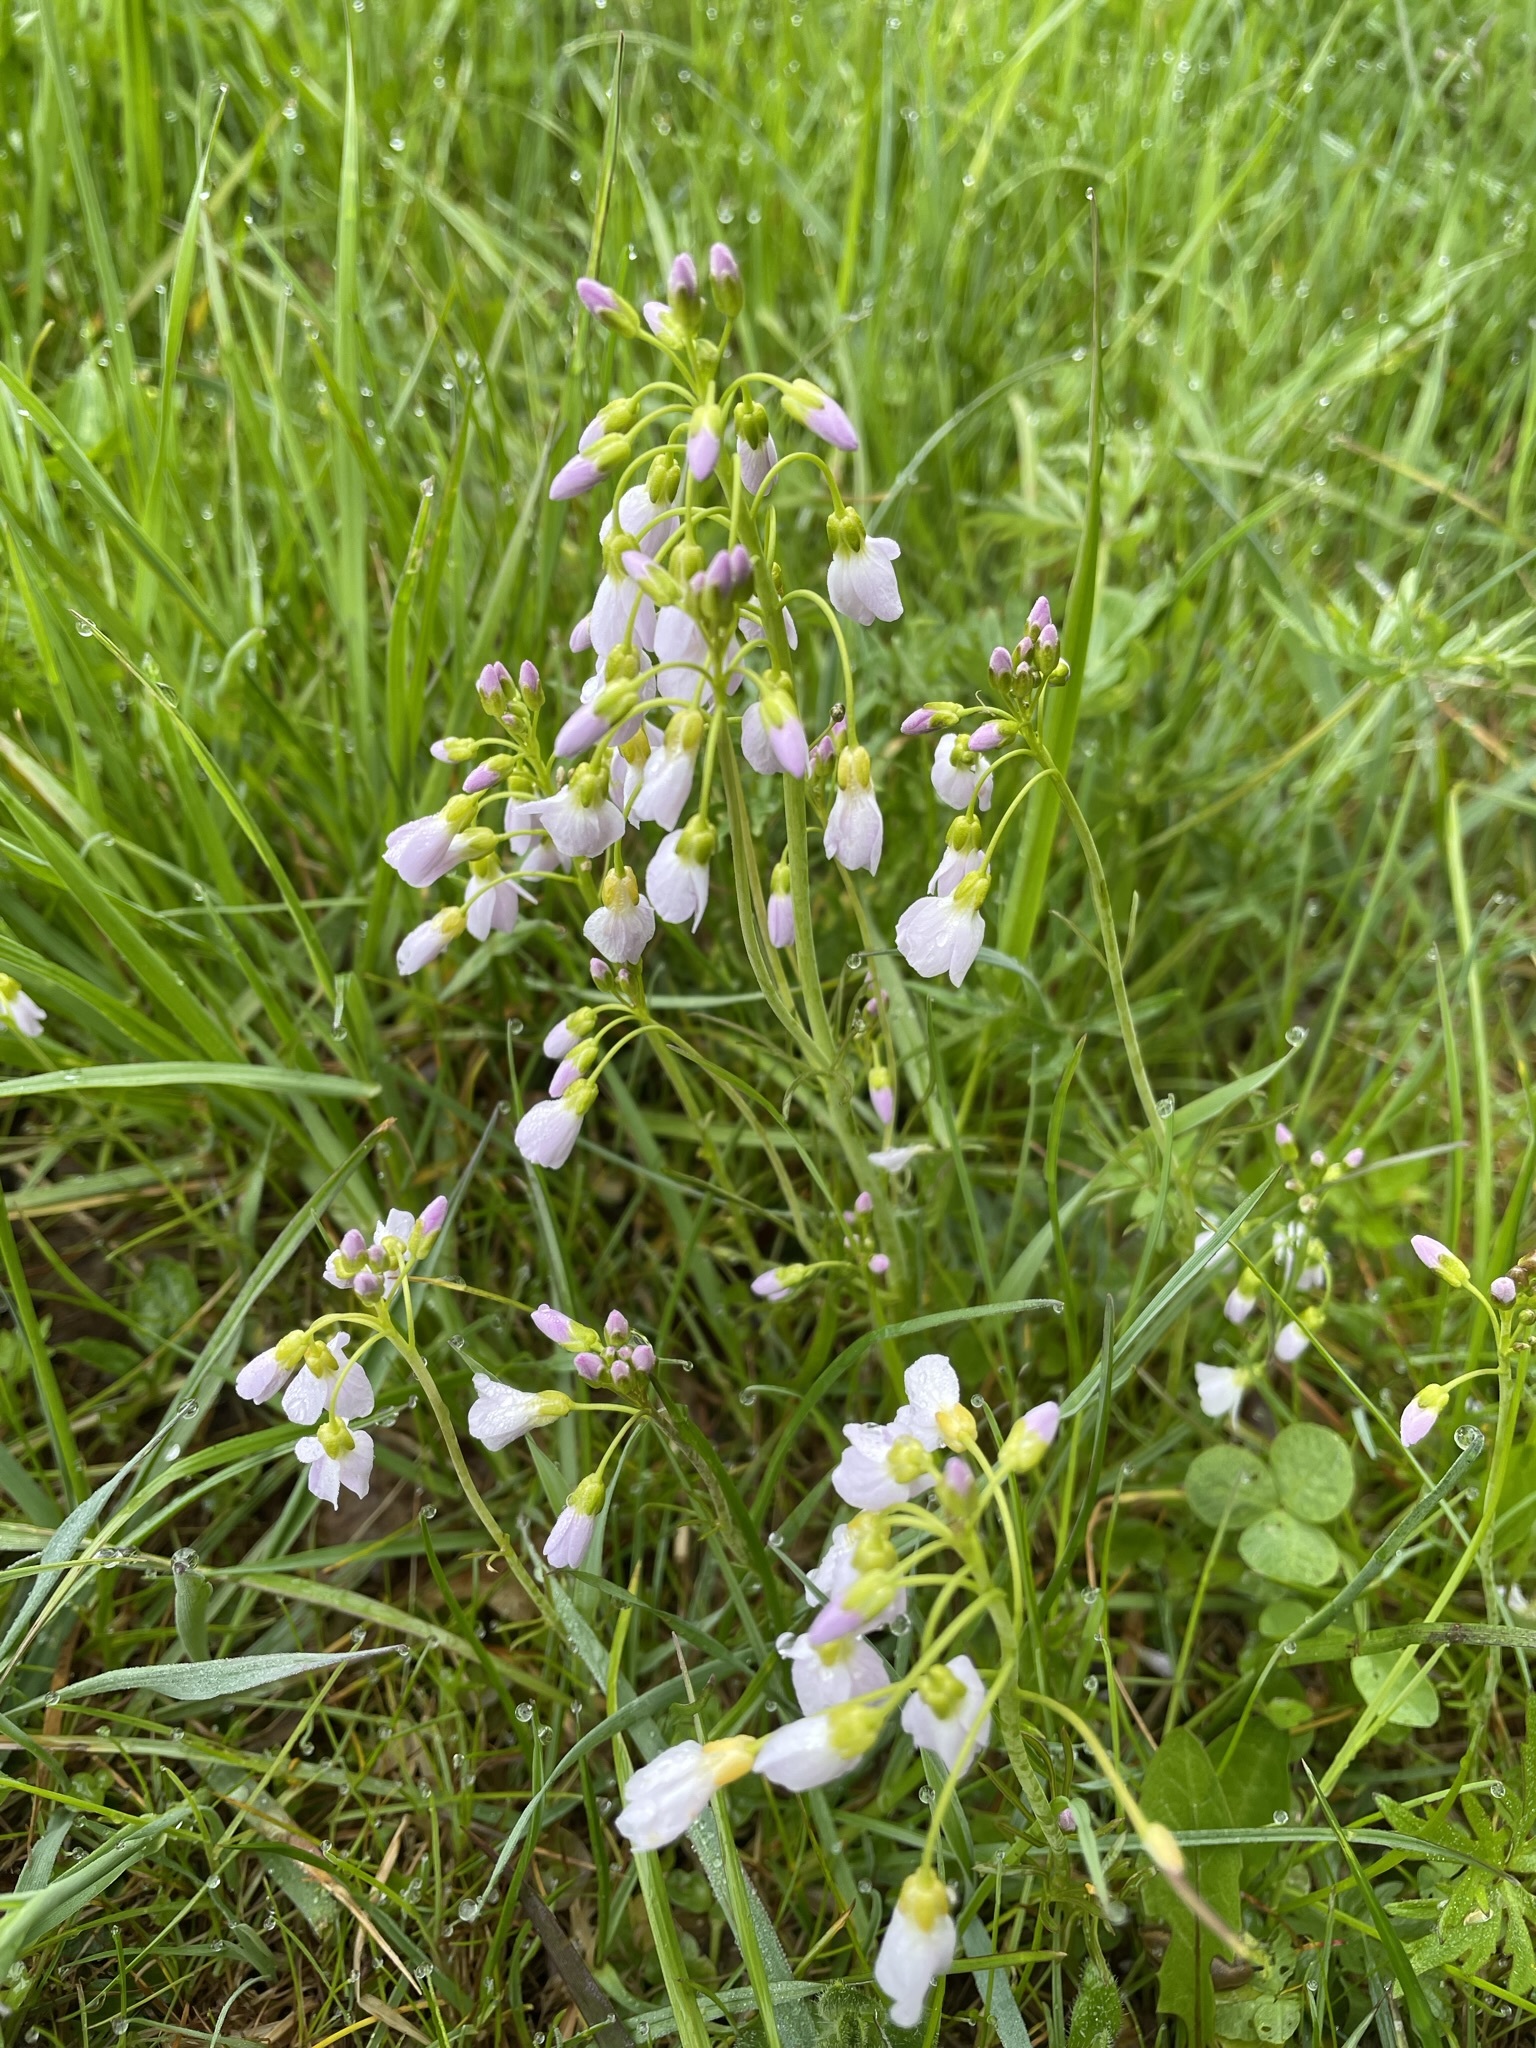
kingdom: Plantae
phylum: Tracheophyta
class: Magnoliopsida
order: Brassicales
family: Brassicaceae
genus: Cardamine
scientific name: Cardamine pratensis
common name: Cuckoo flower
